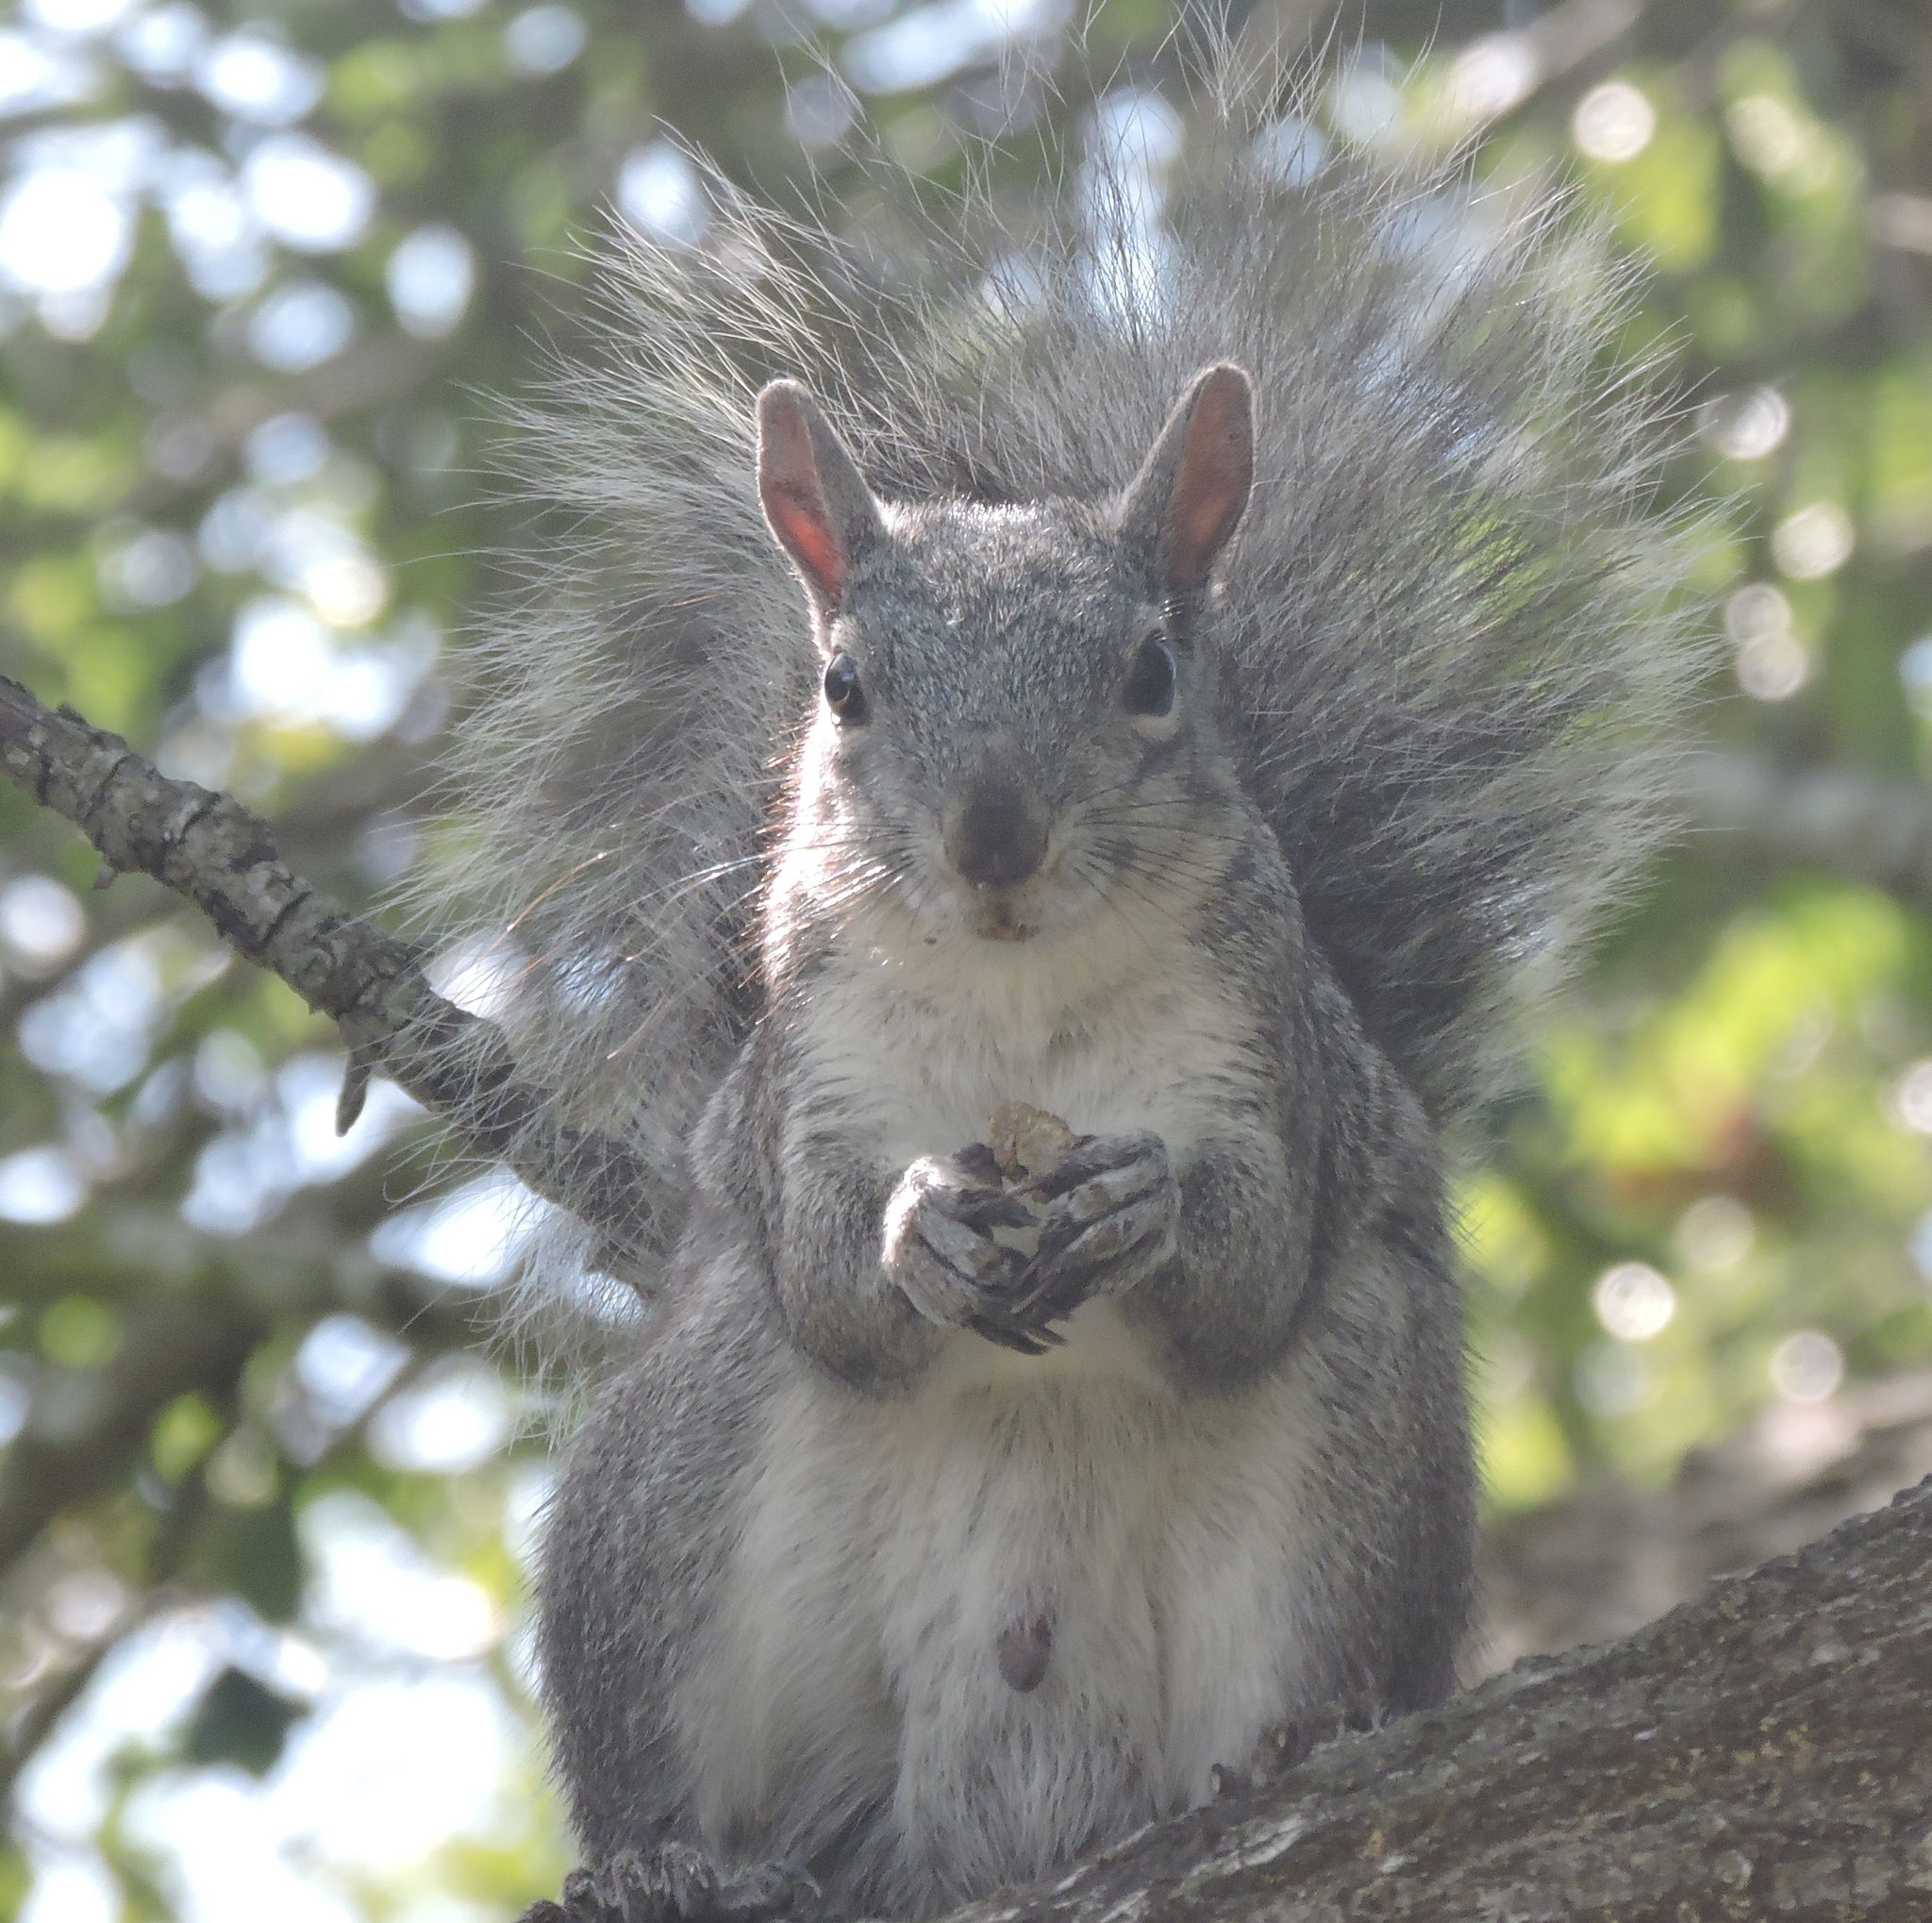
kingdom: Animalia
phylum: Chordata
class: Mammalia
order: Rodentia
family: Sciuridae
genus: Sciurus
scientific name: Sciurus griseus
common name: Western gray squirrel
